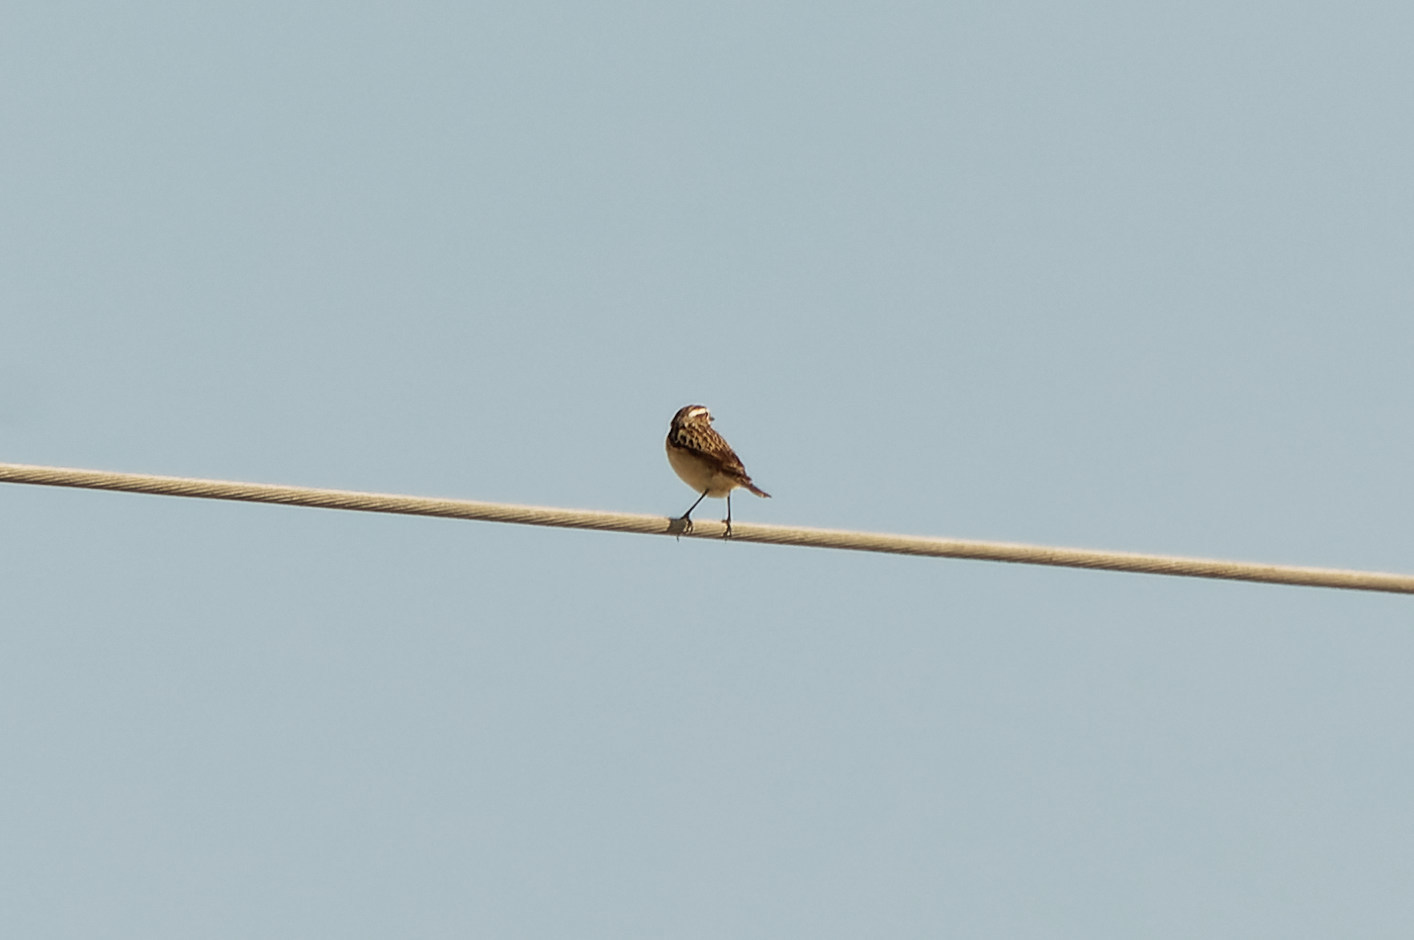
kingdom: Animalia
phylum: Chordata
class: Aves
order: Passeriformes
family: Muscicapidae
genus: Saxicola
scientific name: Saxicola rubetra
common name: Whinchat
